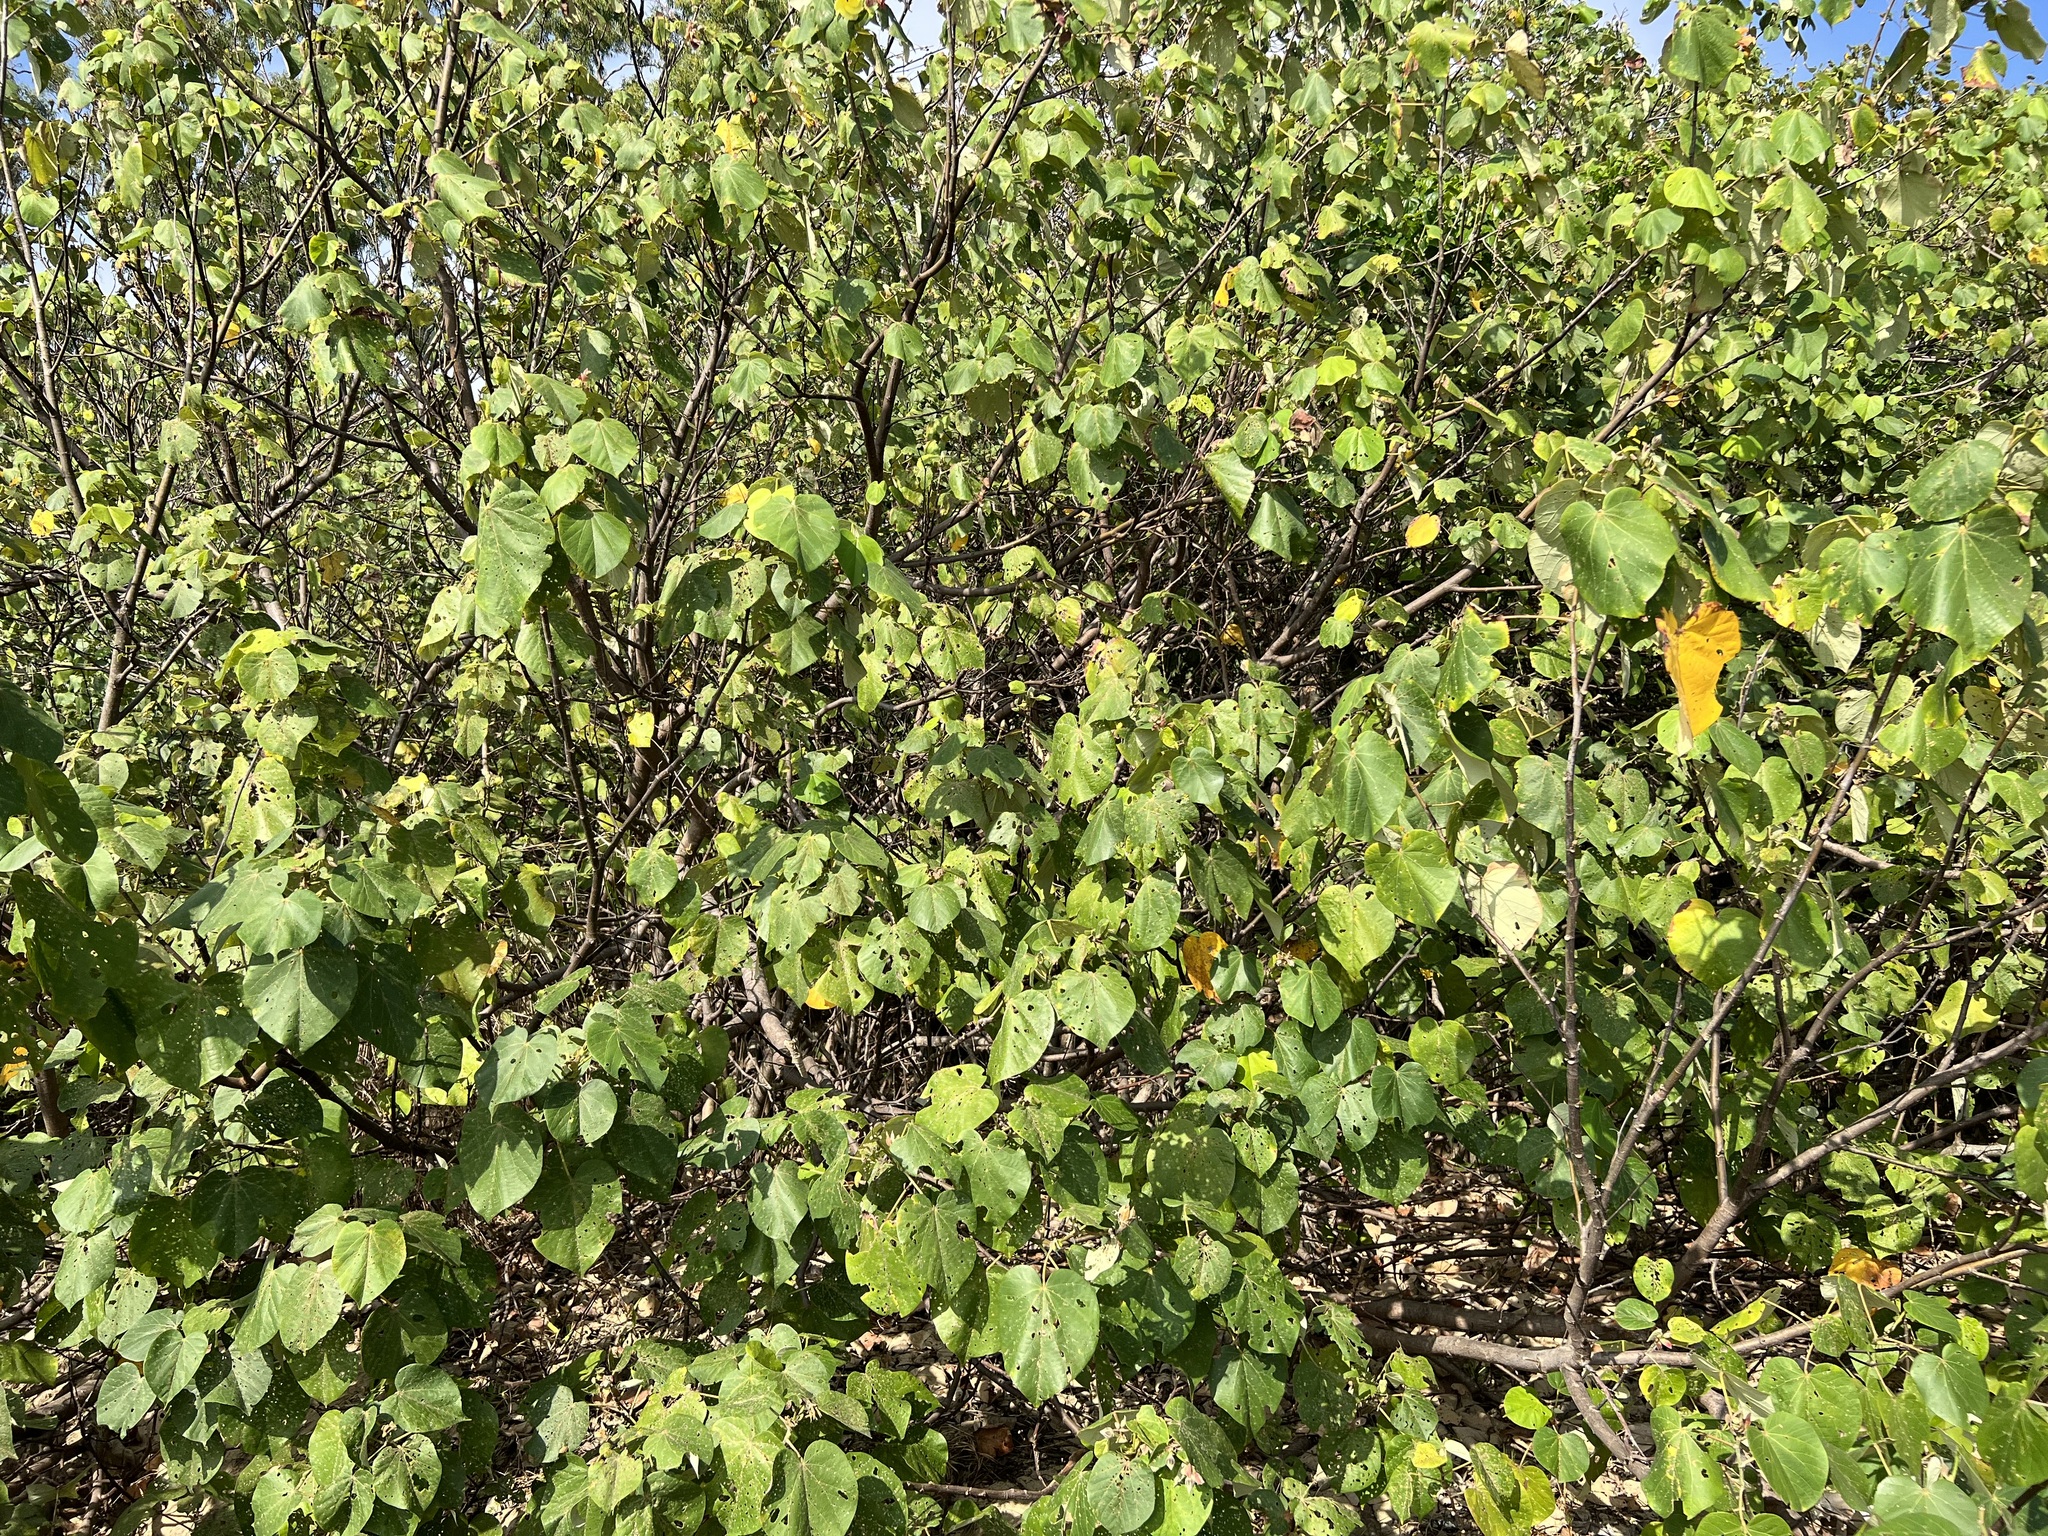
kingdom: Plantae
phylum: Tracheophyta
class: Magnoliopsida
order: Malvales
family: Malvaceae
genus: Talipariti
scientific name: Talipariti tiliaceum
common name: Sea hibiscus
